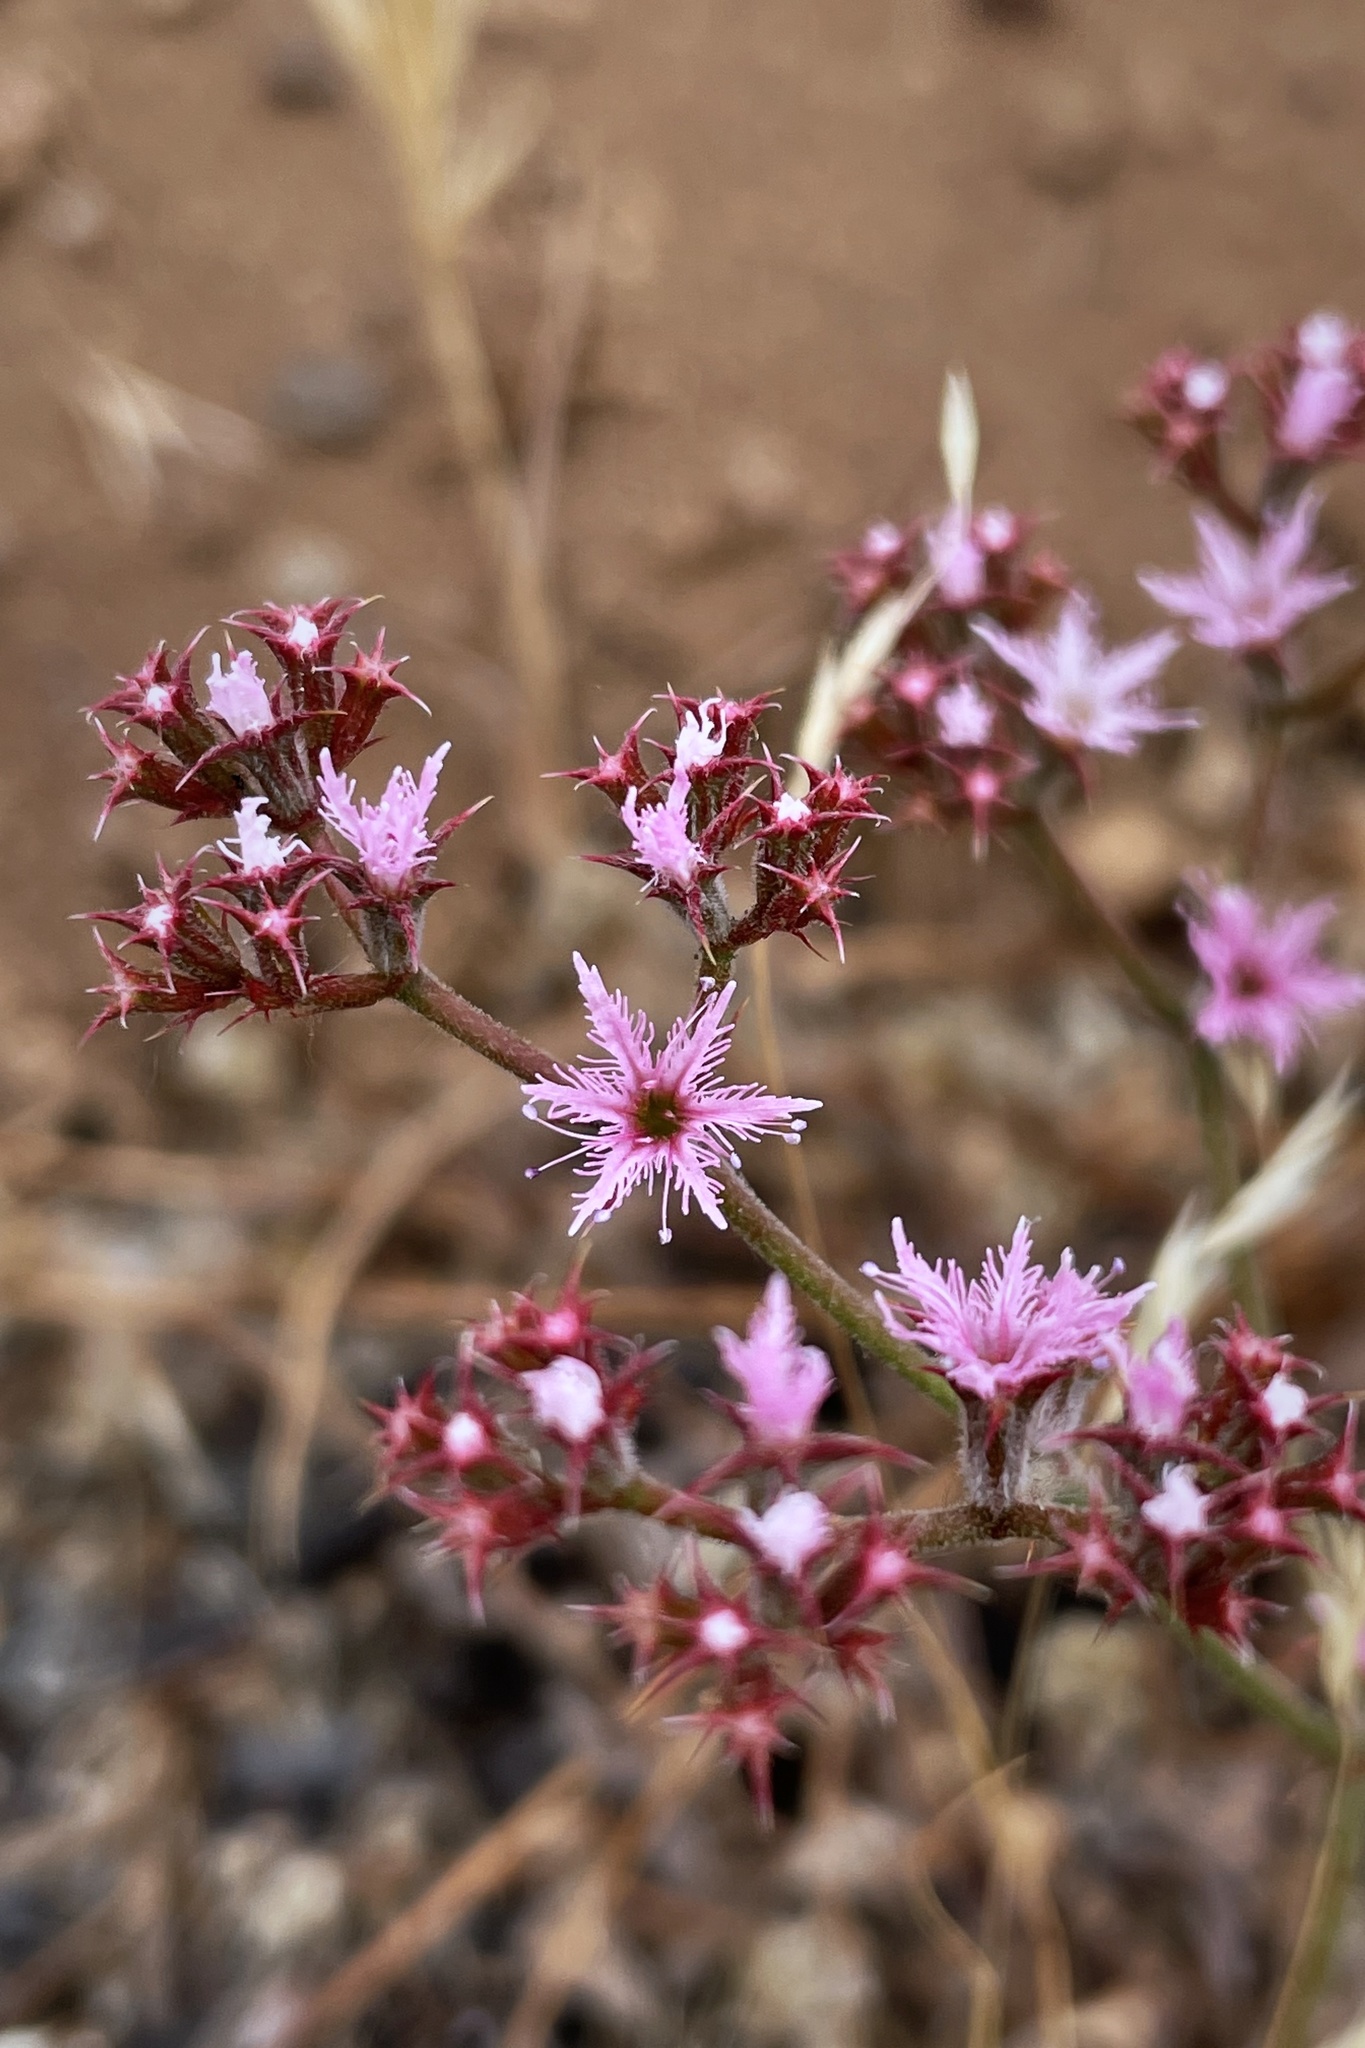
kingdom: Plantae
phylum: Tracheophyta
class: Magnoliopsida
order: Caryophyllales
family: Polygonaceae
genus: Chorizanthe
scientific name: Chorizanthe fimbriata
